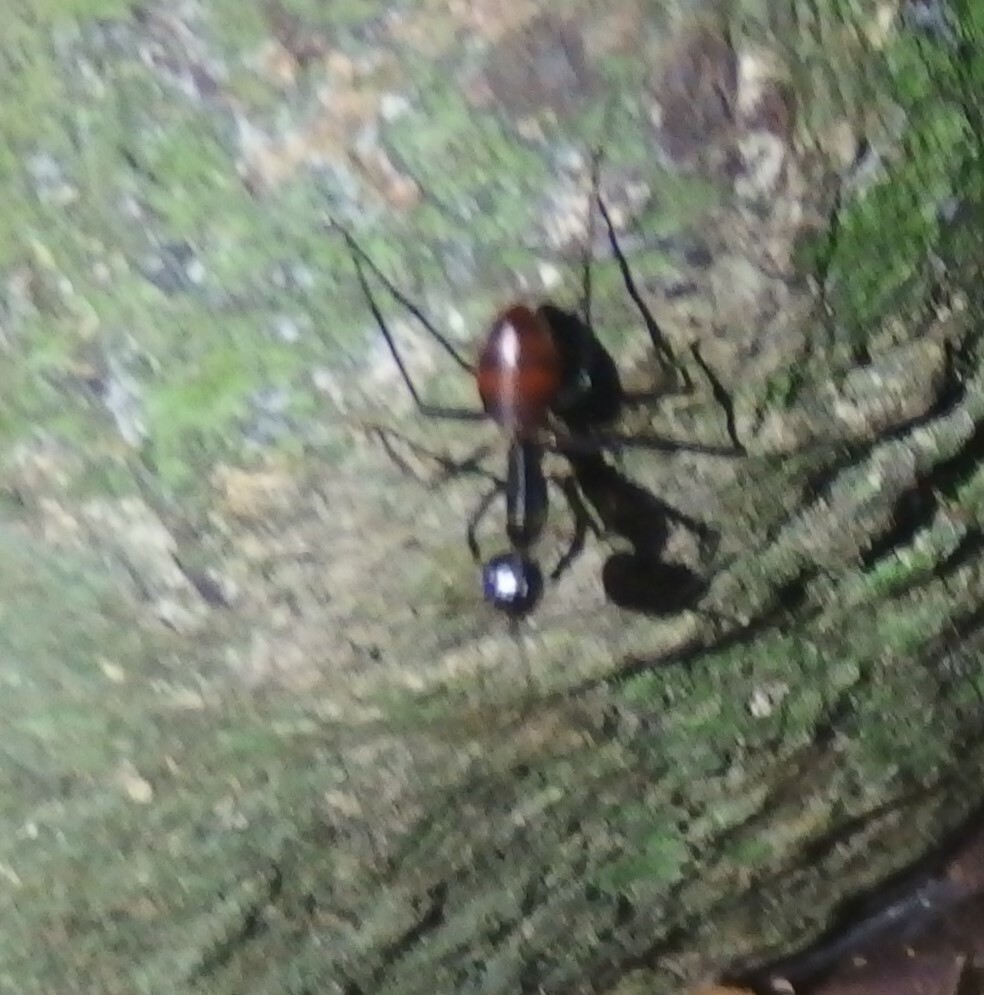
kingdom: Animalia
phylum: Arthropoda
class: Insecta
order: Hymenoptera
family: Formicidae
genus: Dinomyrmex
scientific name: Dinomyrmex
